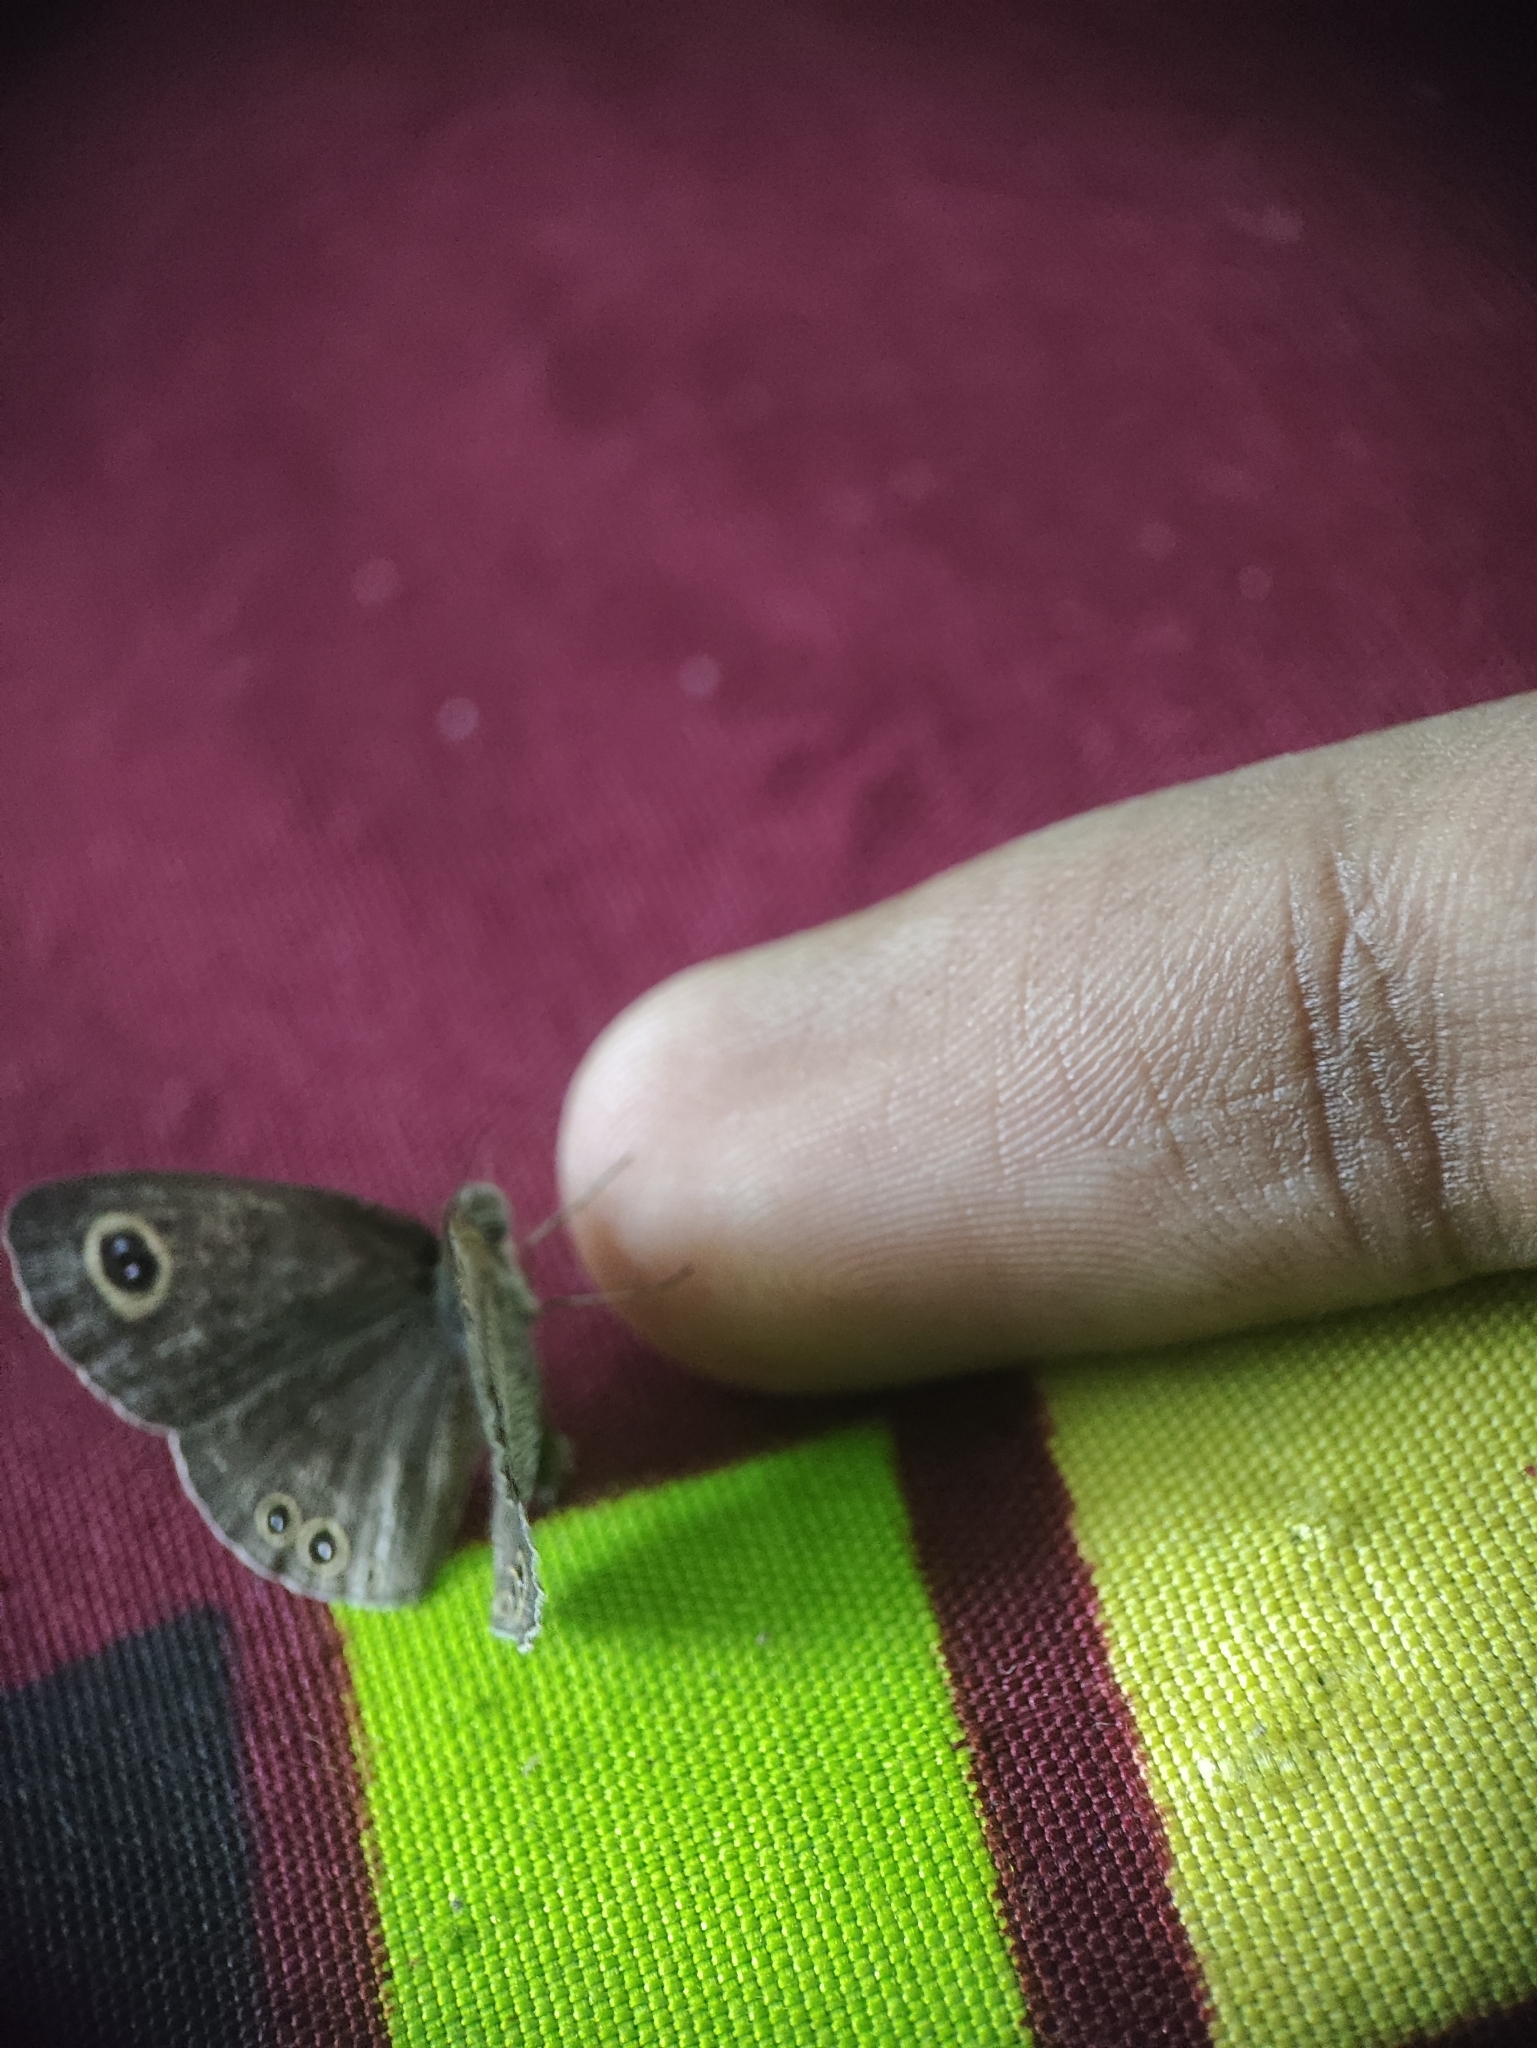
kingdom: Animalia
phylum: Arthropoda
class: Insecta
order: Lepidoptera
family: Nymphalidae
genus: Ypthima
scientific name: Ypthima huebneri
